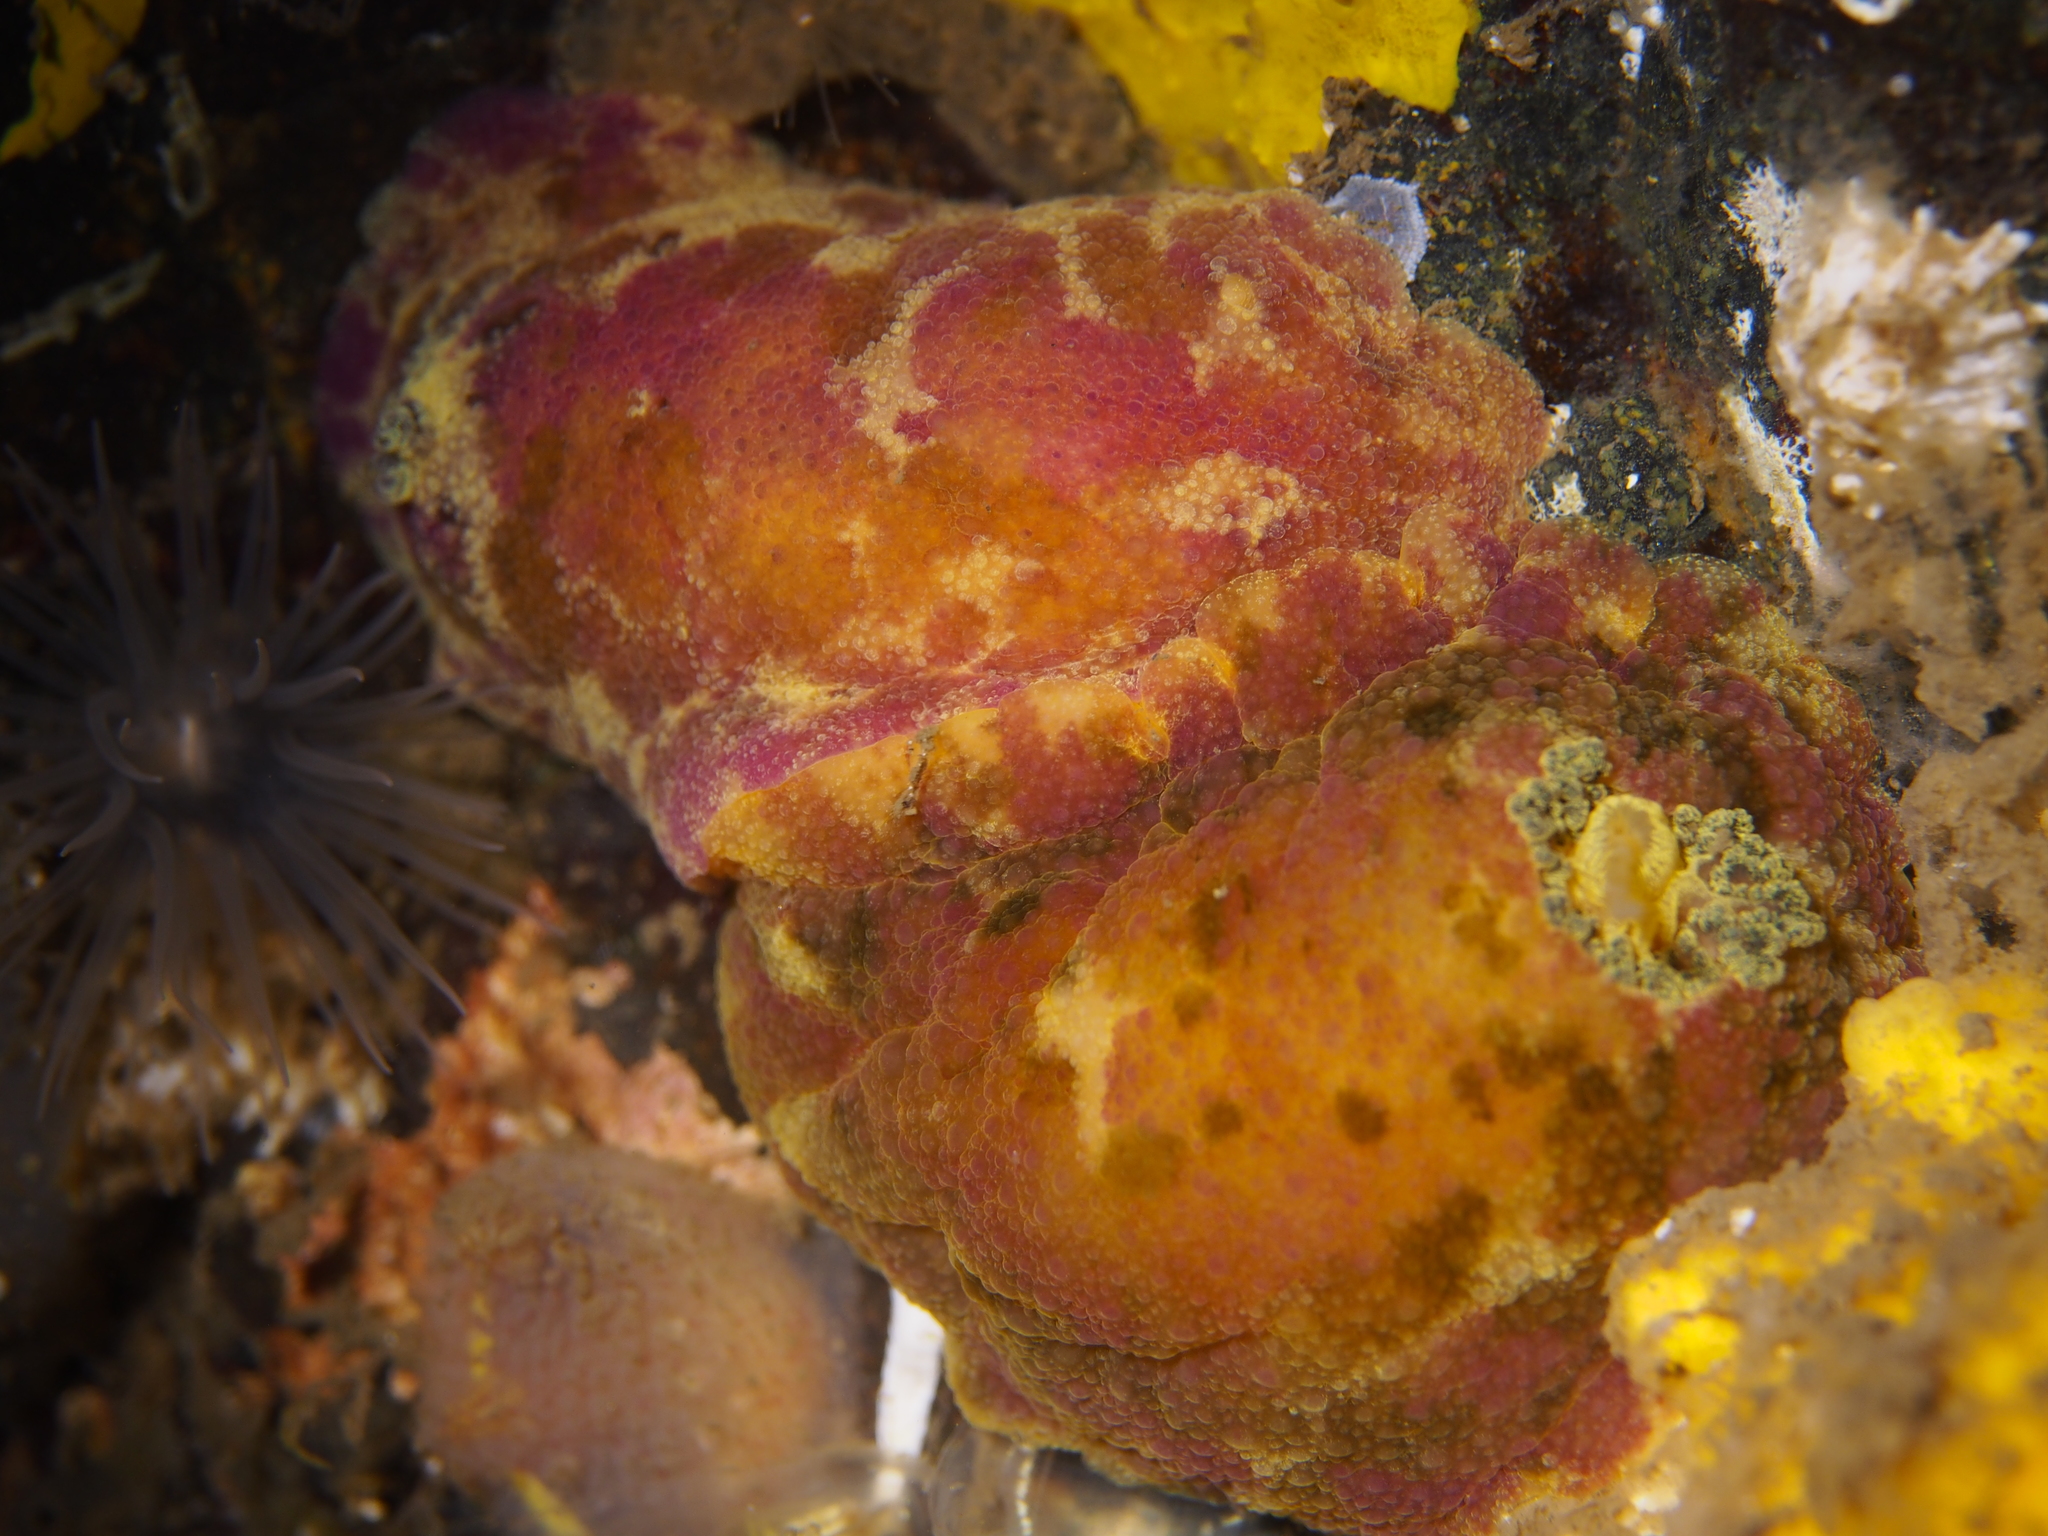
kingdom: Animalia
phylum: Mollusca
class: Gastropoda
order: Nudibranchia
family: Dorididae
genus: Doris
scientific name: Doris pseudoargus
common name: Sea lemon
